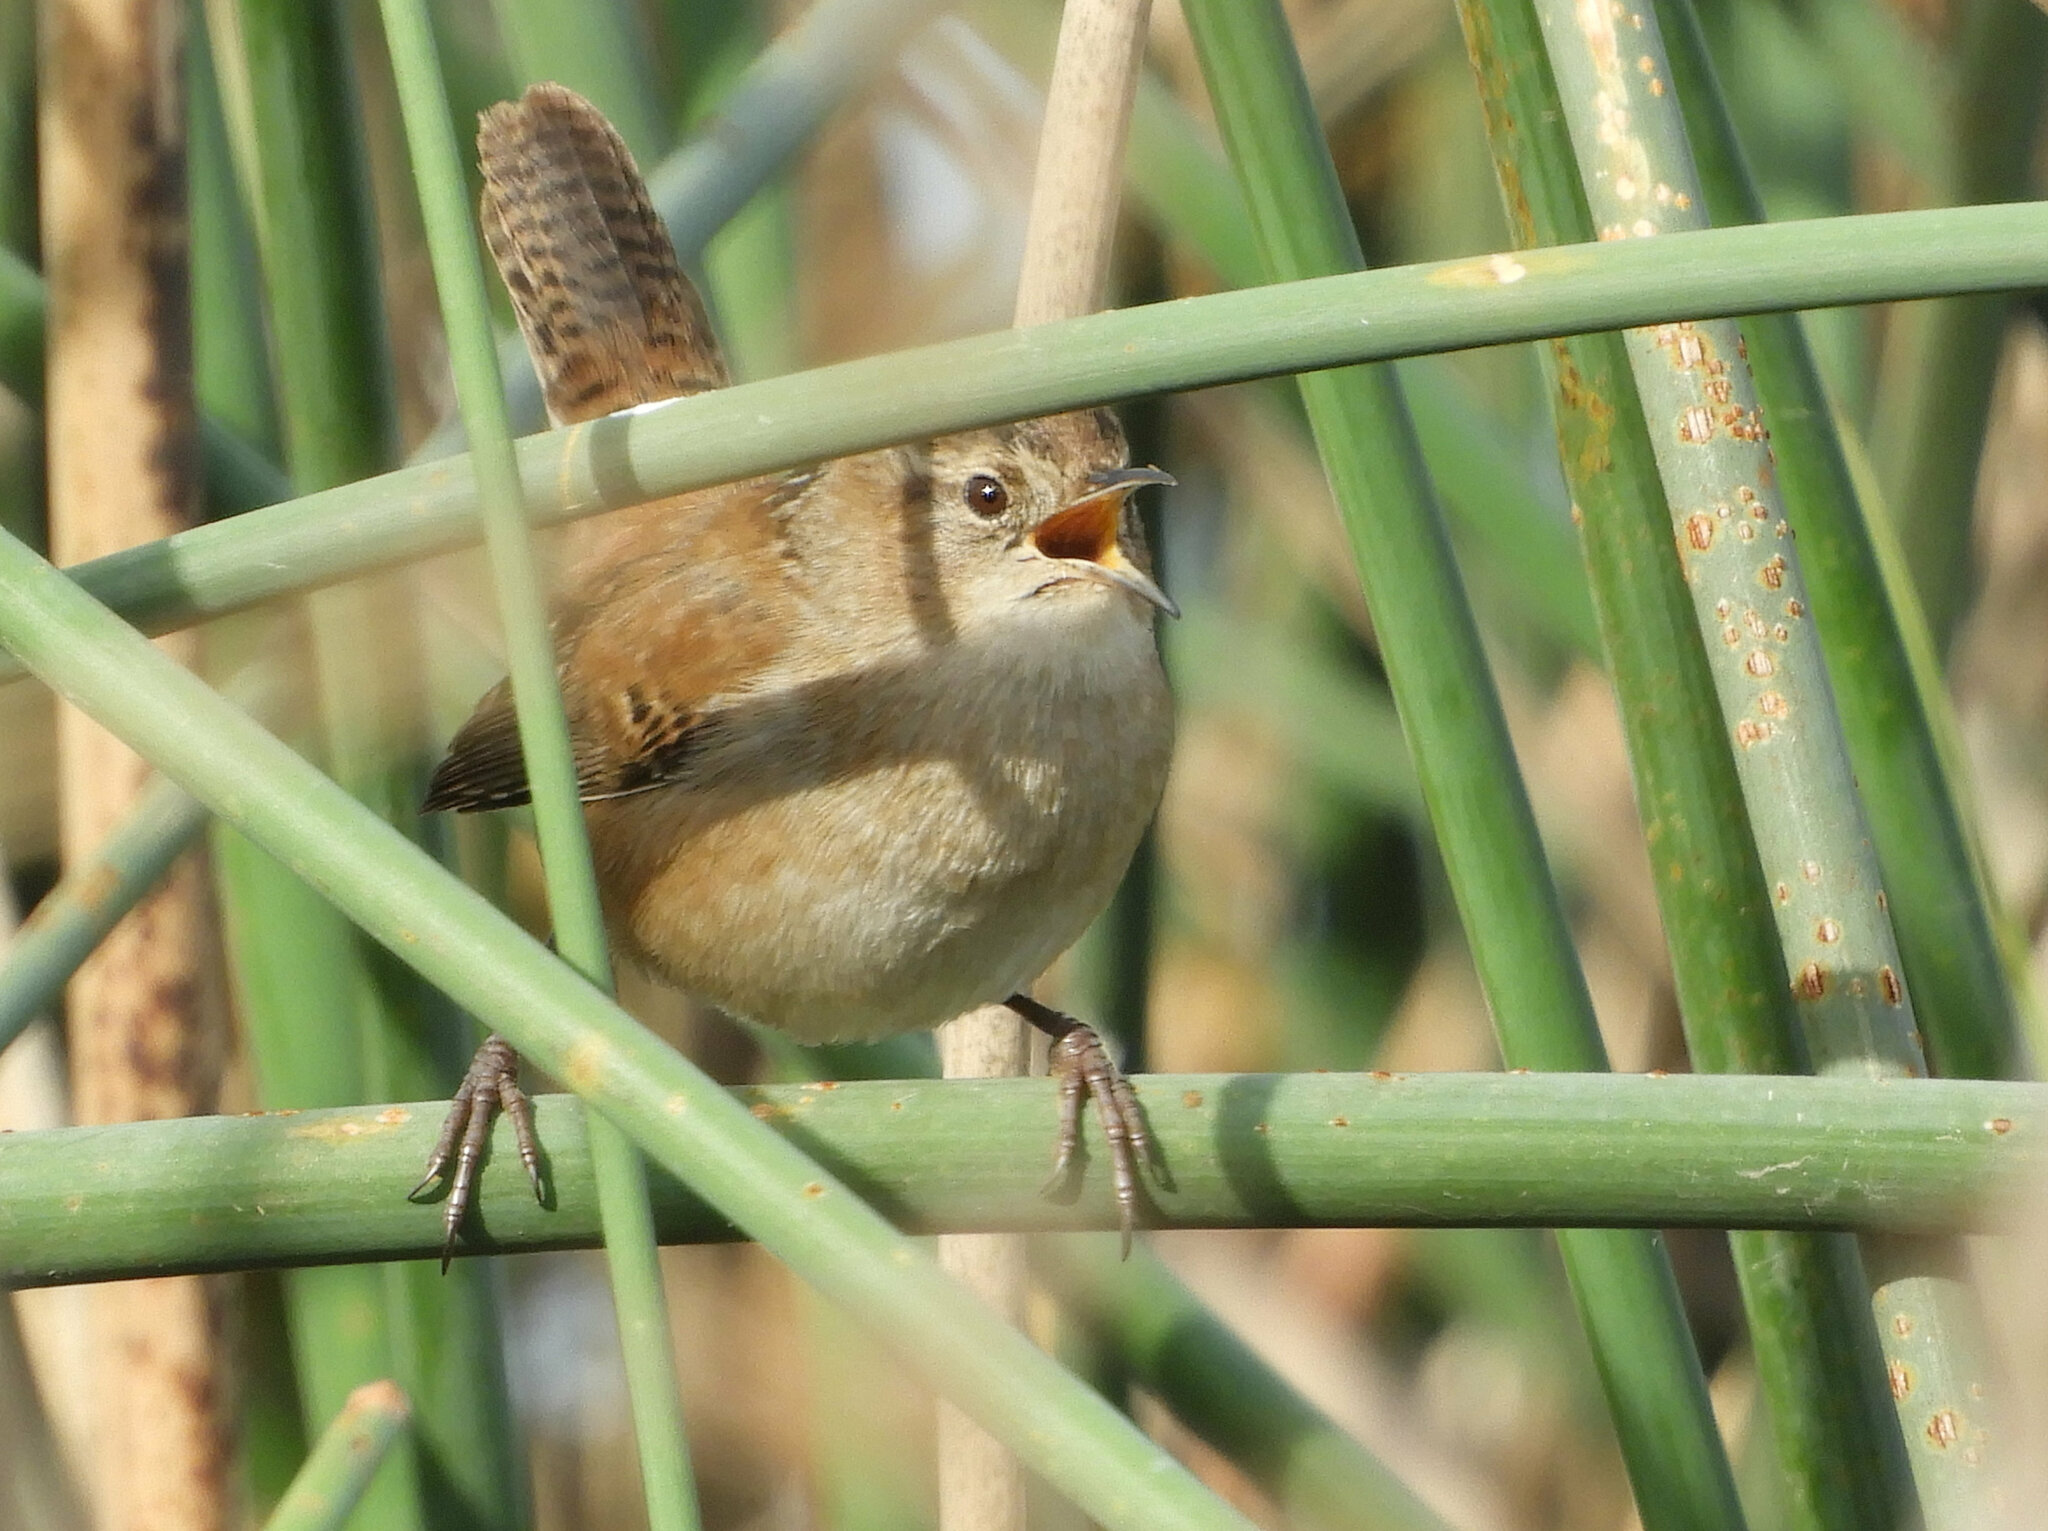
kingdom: Animalia
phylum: Chordata
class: Aves
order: Passeriformes
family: Troglodytidae
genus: Cistothorus
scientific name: Cistothorus palustris
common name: Marsh wren
